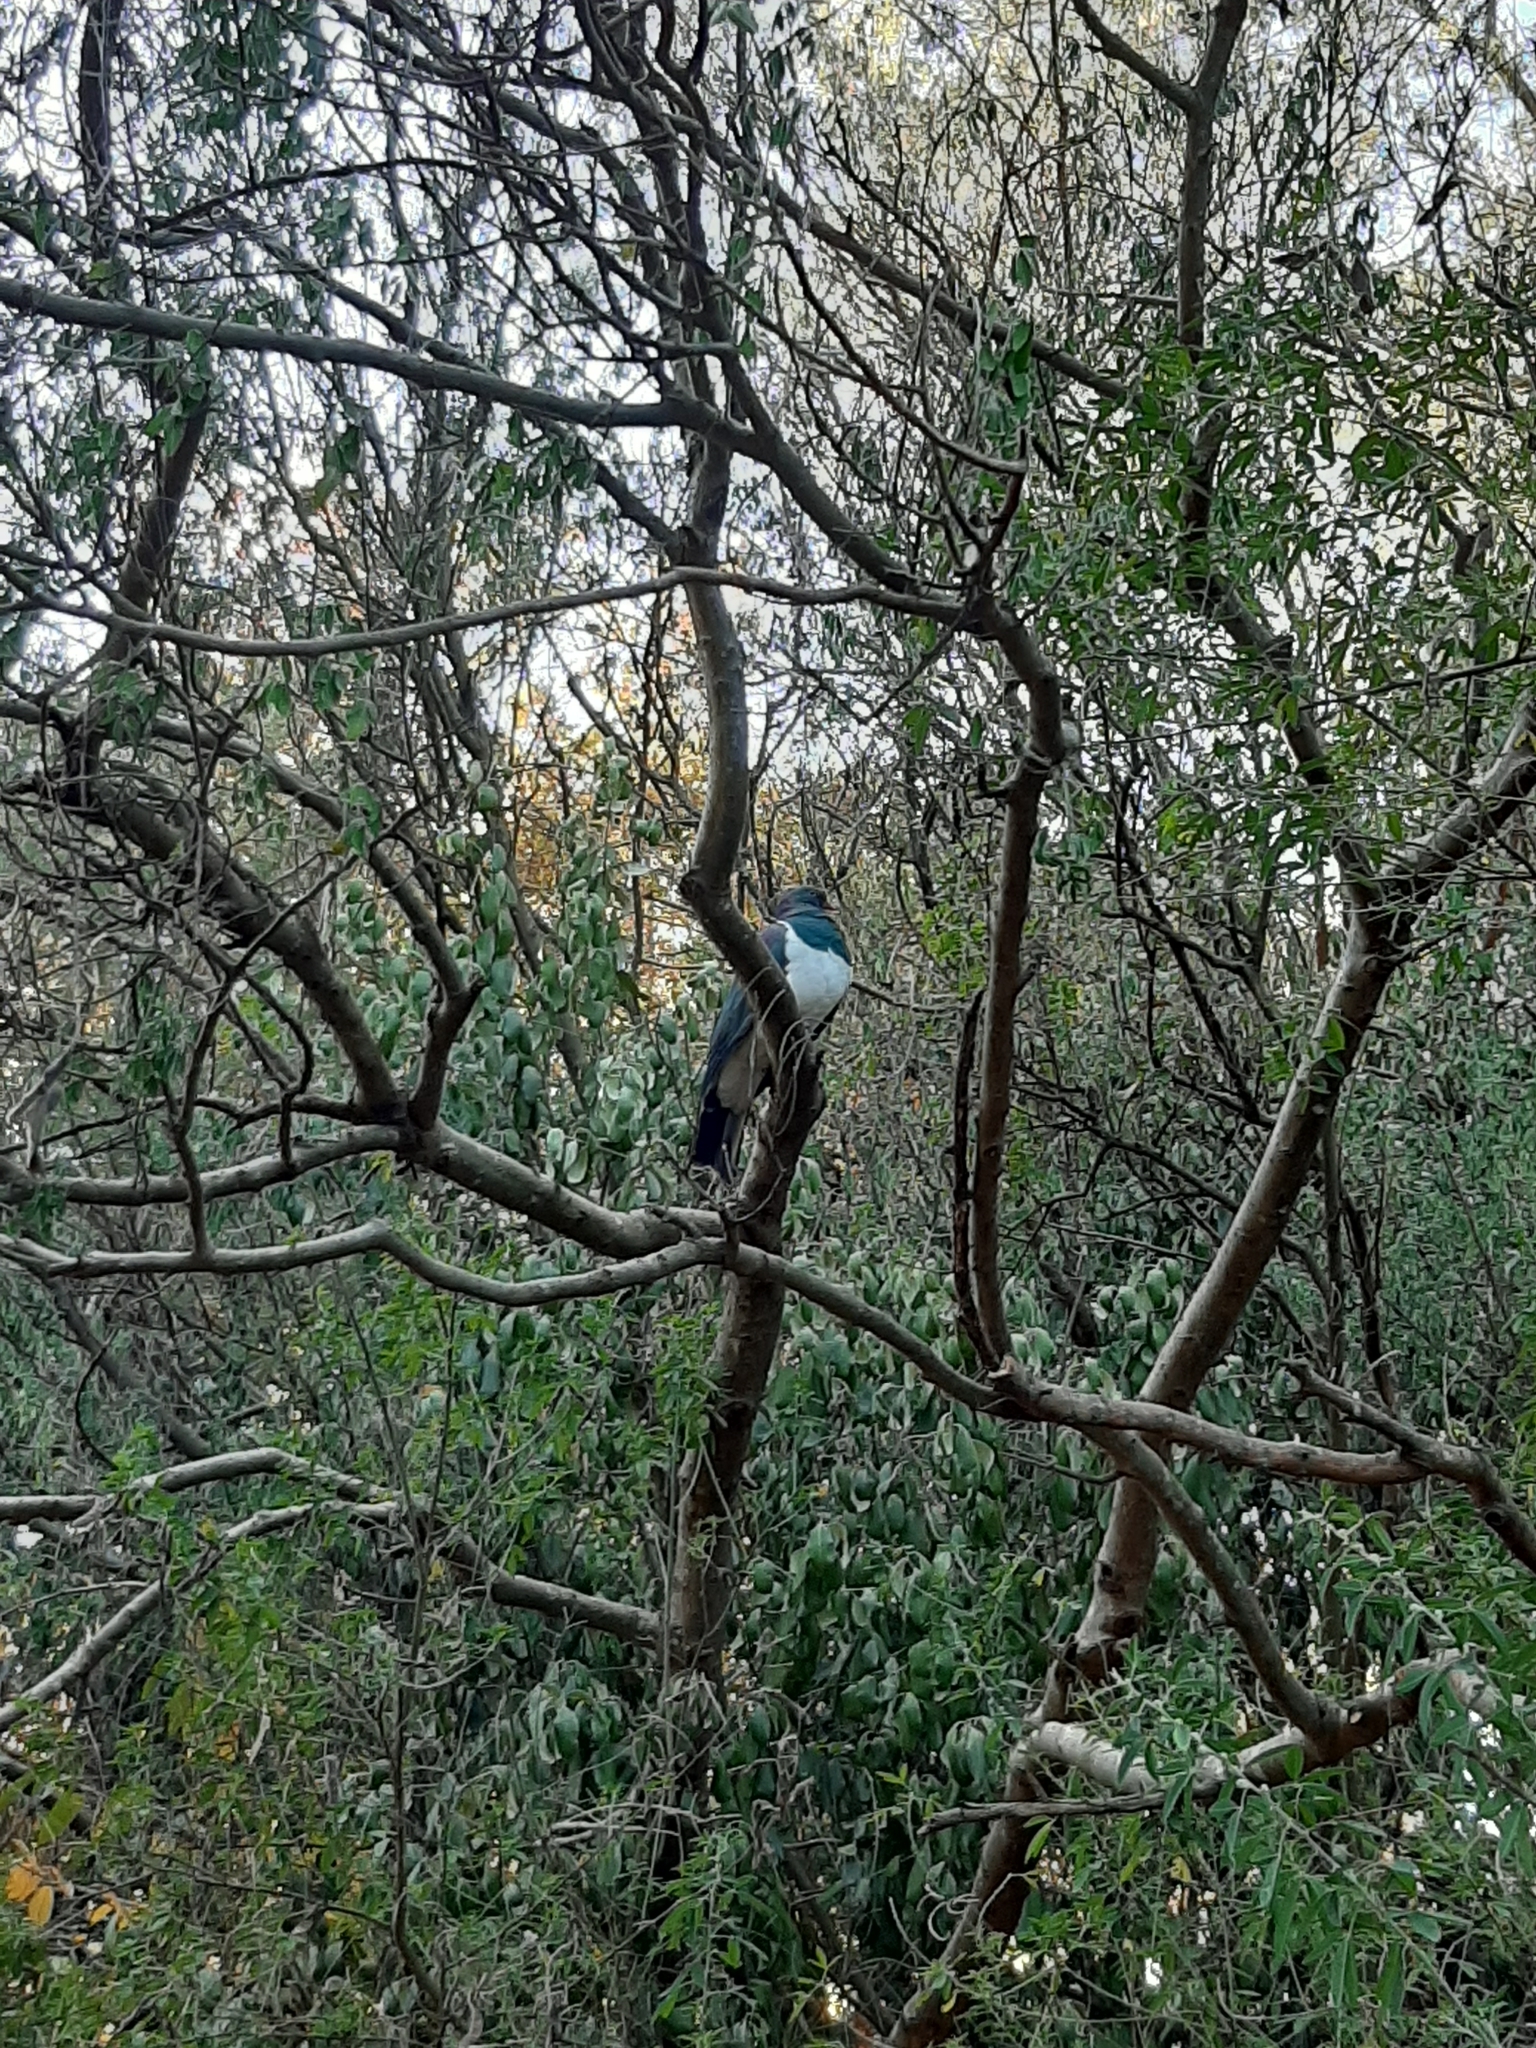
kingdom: Animalia
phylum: Chordata
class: Aves
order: Columbiformes
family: Columbidae
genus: Hemiphaga
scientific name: Hemiphaga novaeseelandiae
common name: New zealand pigeon
